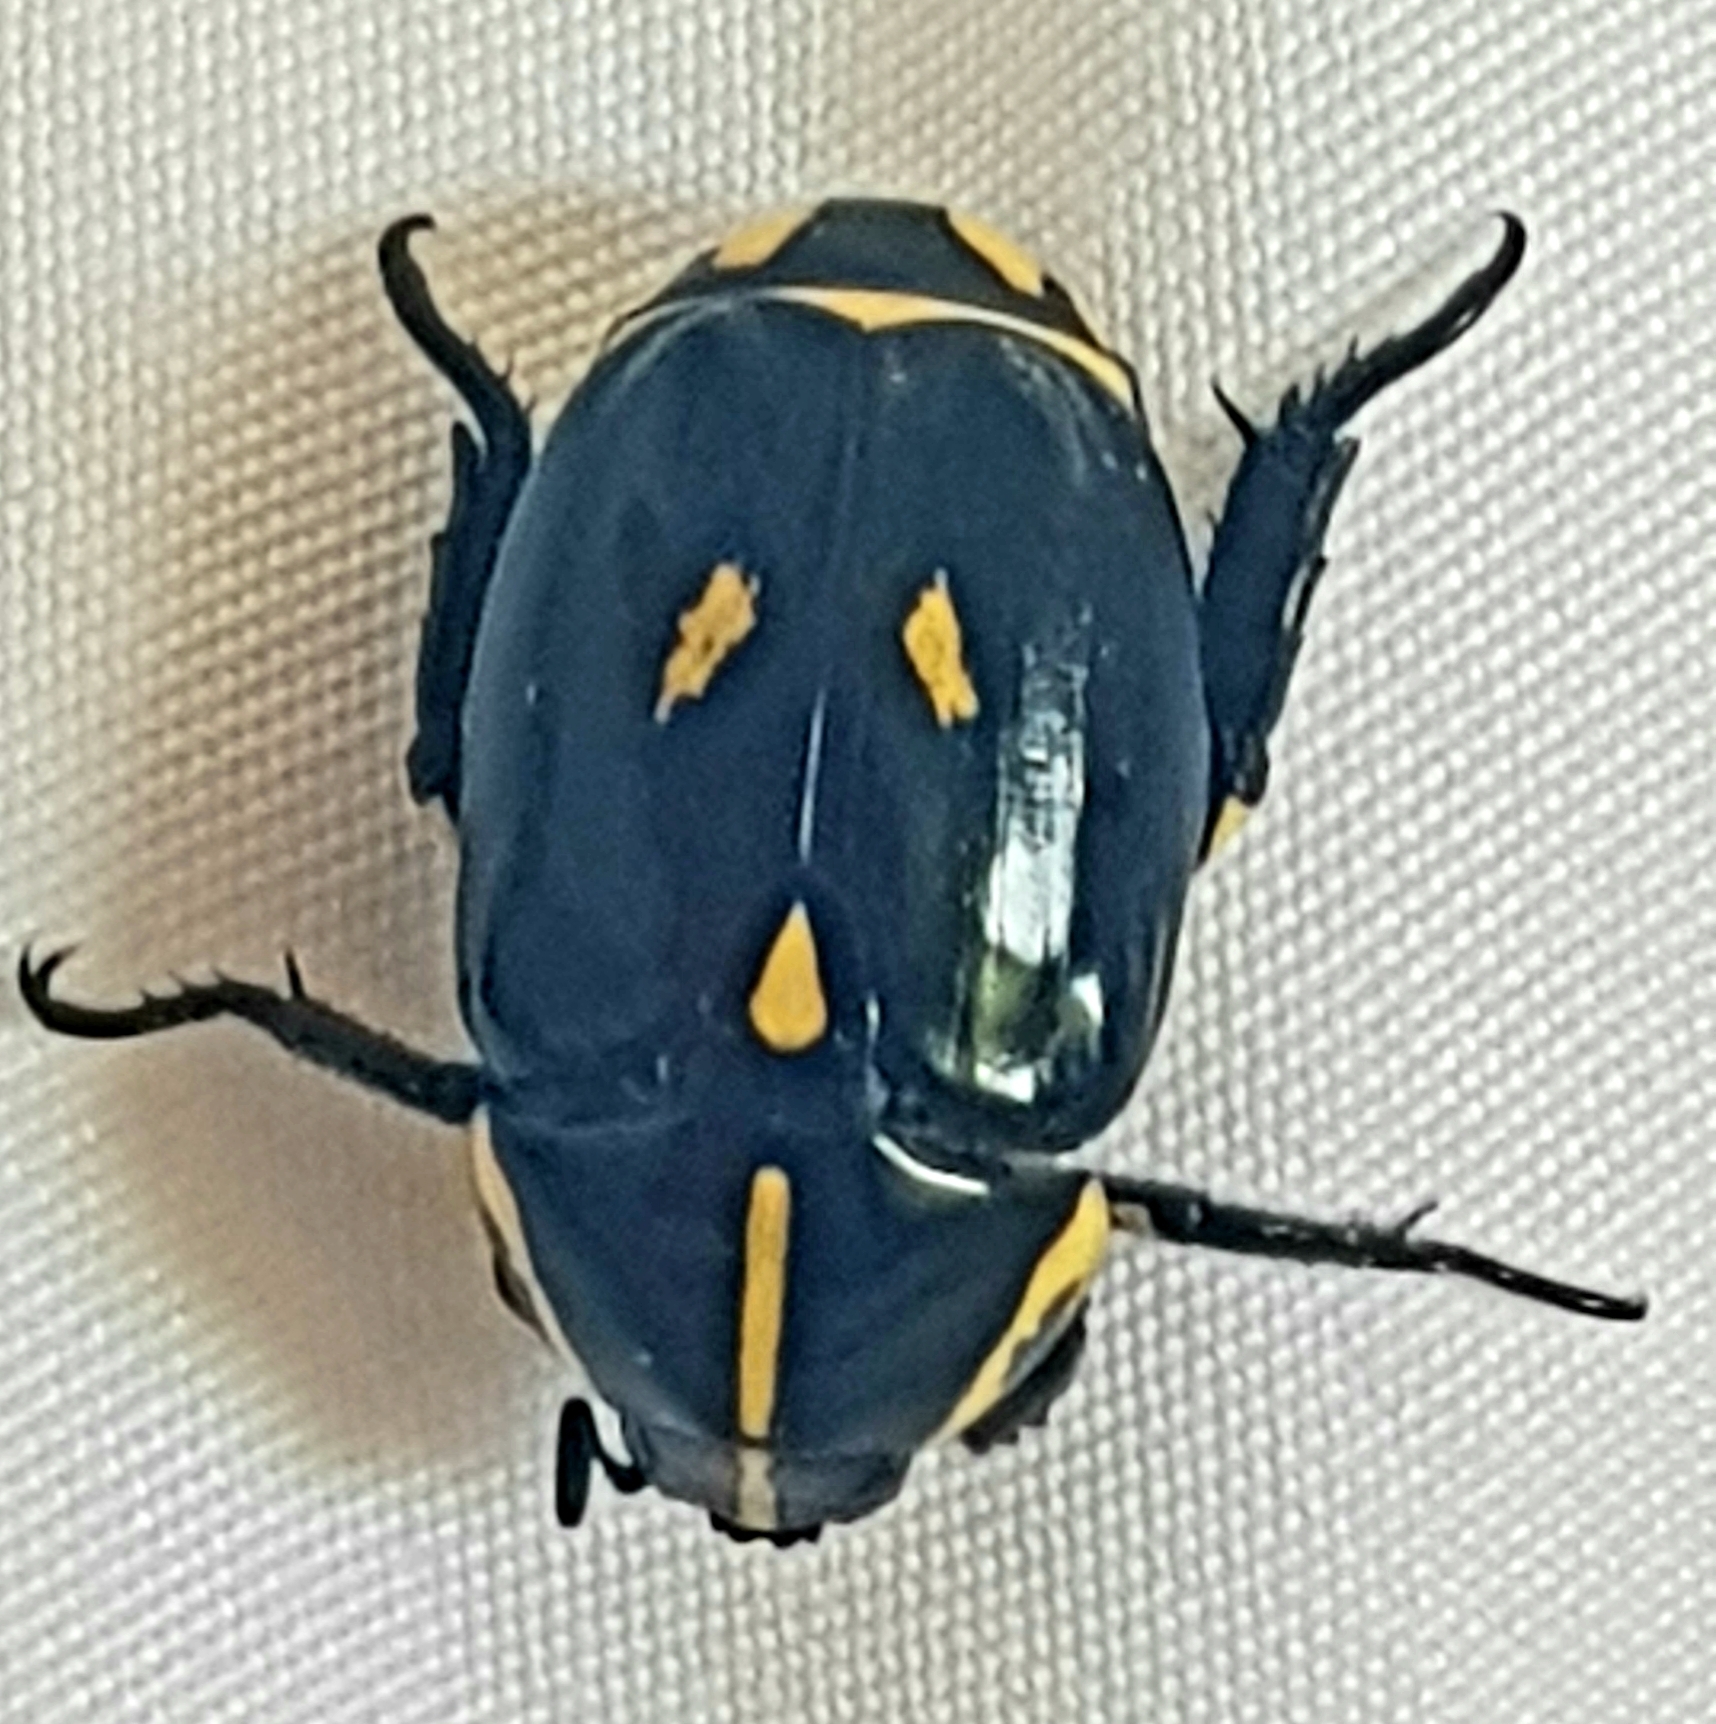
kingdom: Animalia
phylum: Arthropoda
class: Insecta
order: Coleoptera
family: Scarabaeidae
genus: Rutela
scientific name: Rutela lineola
